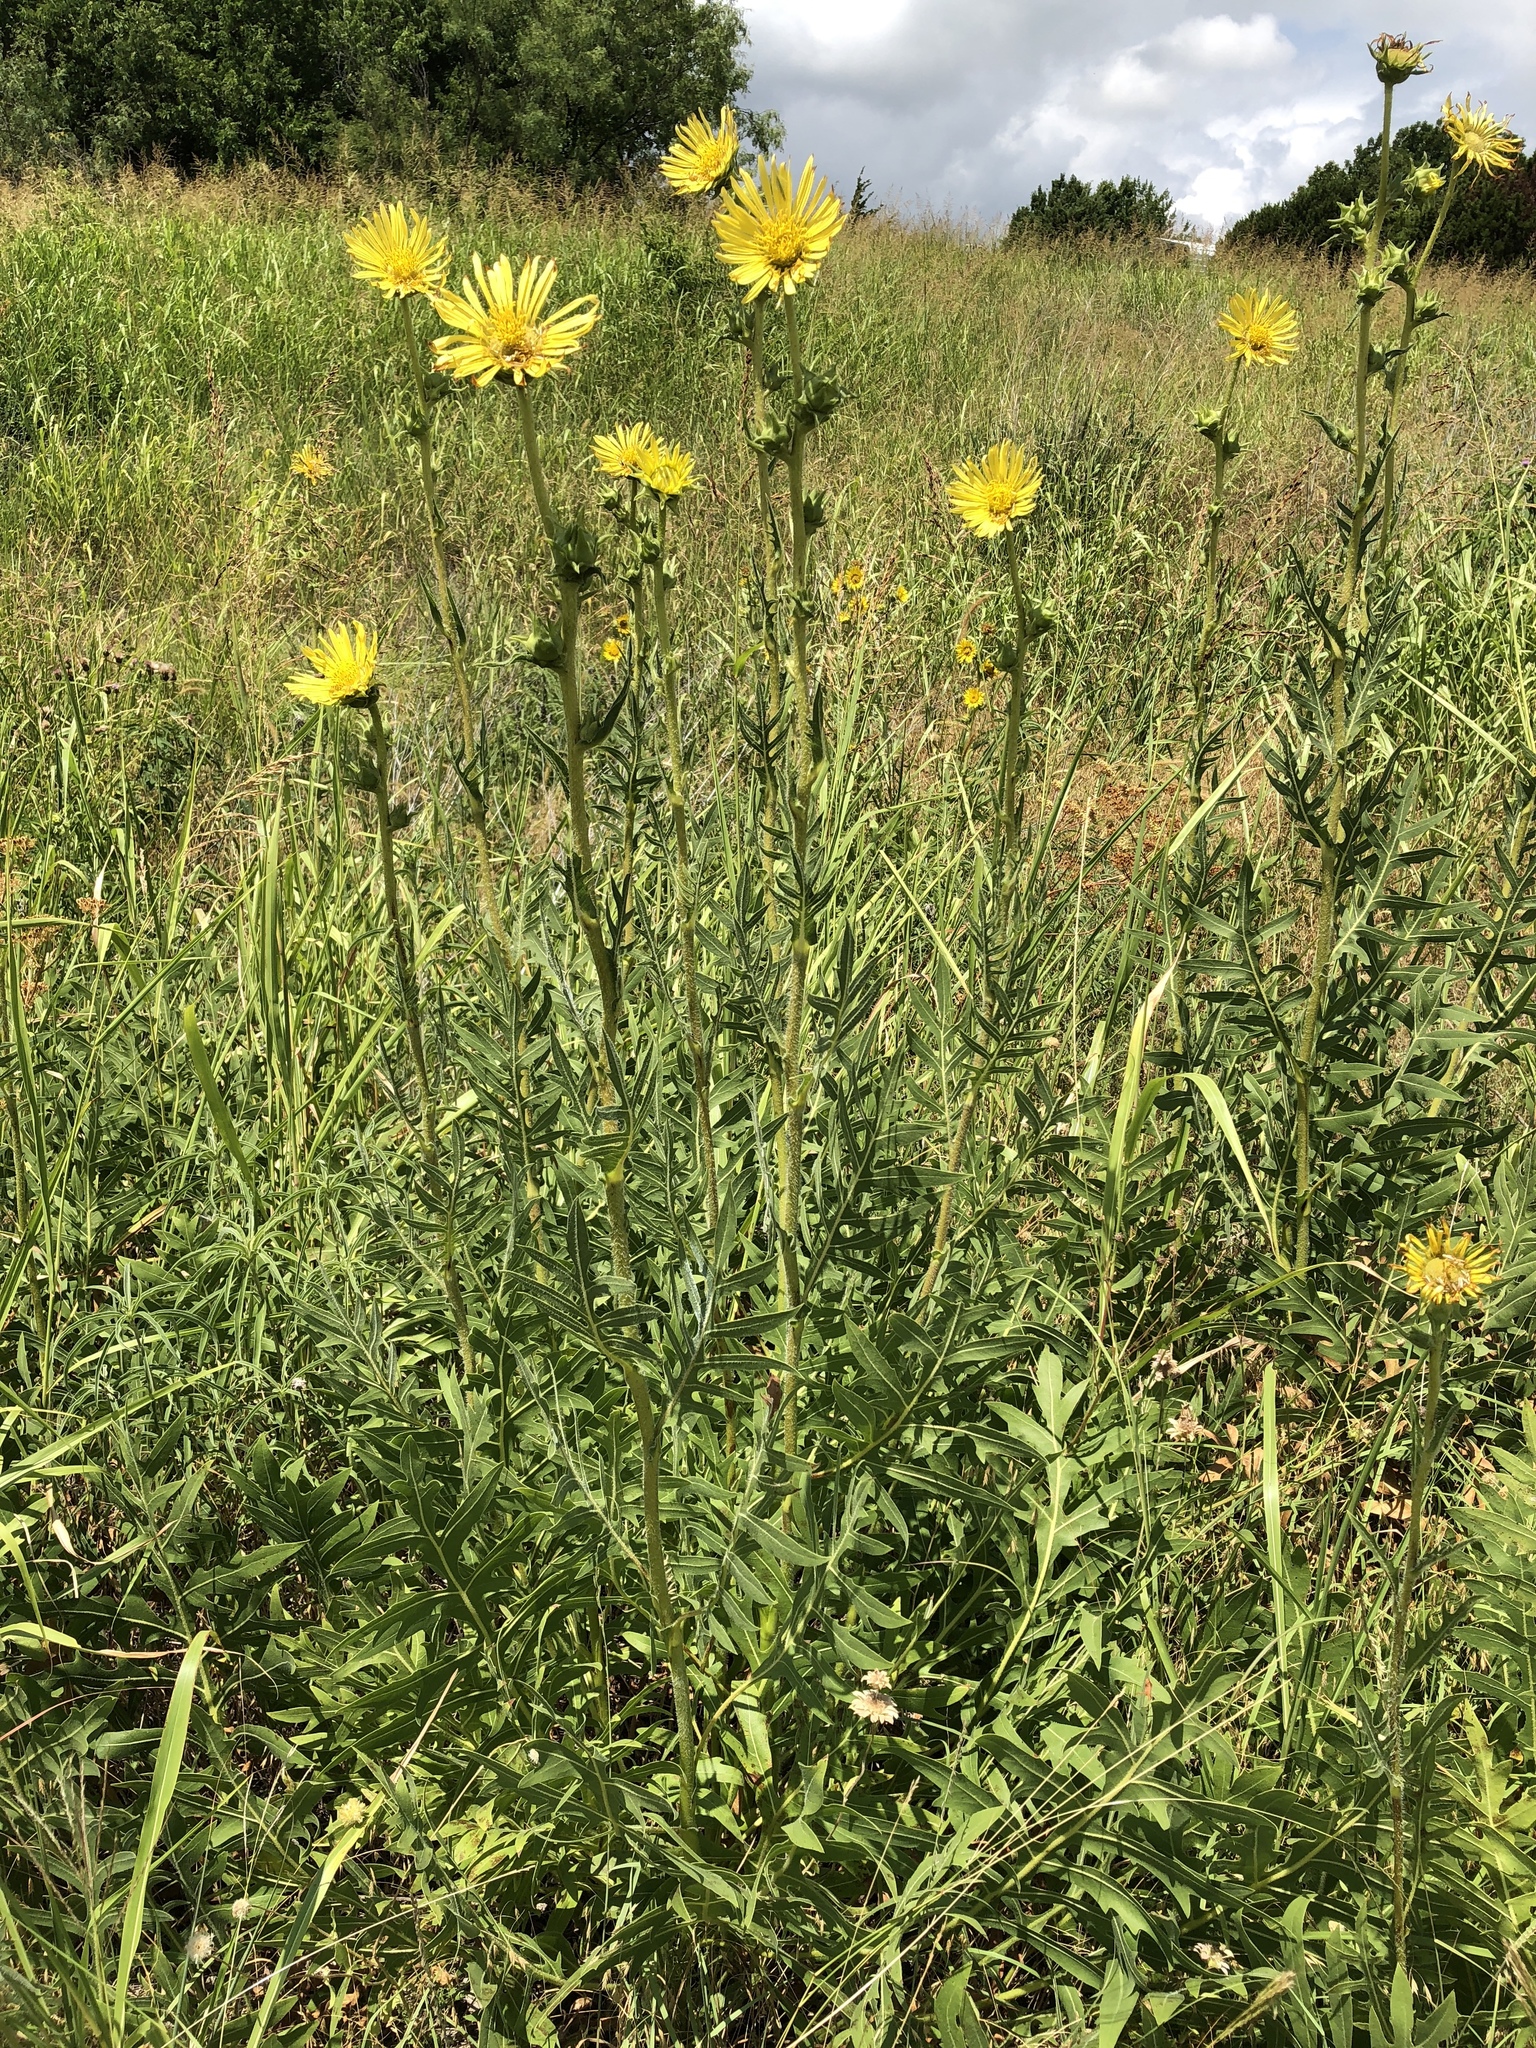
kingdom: Plantae
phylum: Tracheophyta
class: Magnoliopsida
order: Asterales
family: Asteraceae
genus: Silphium
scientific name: Silphium laciniatum
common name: Polarplant
